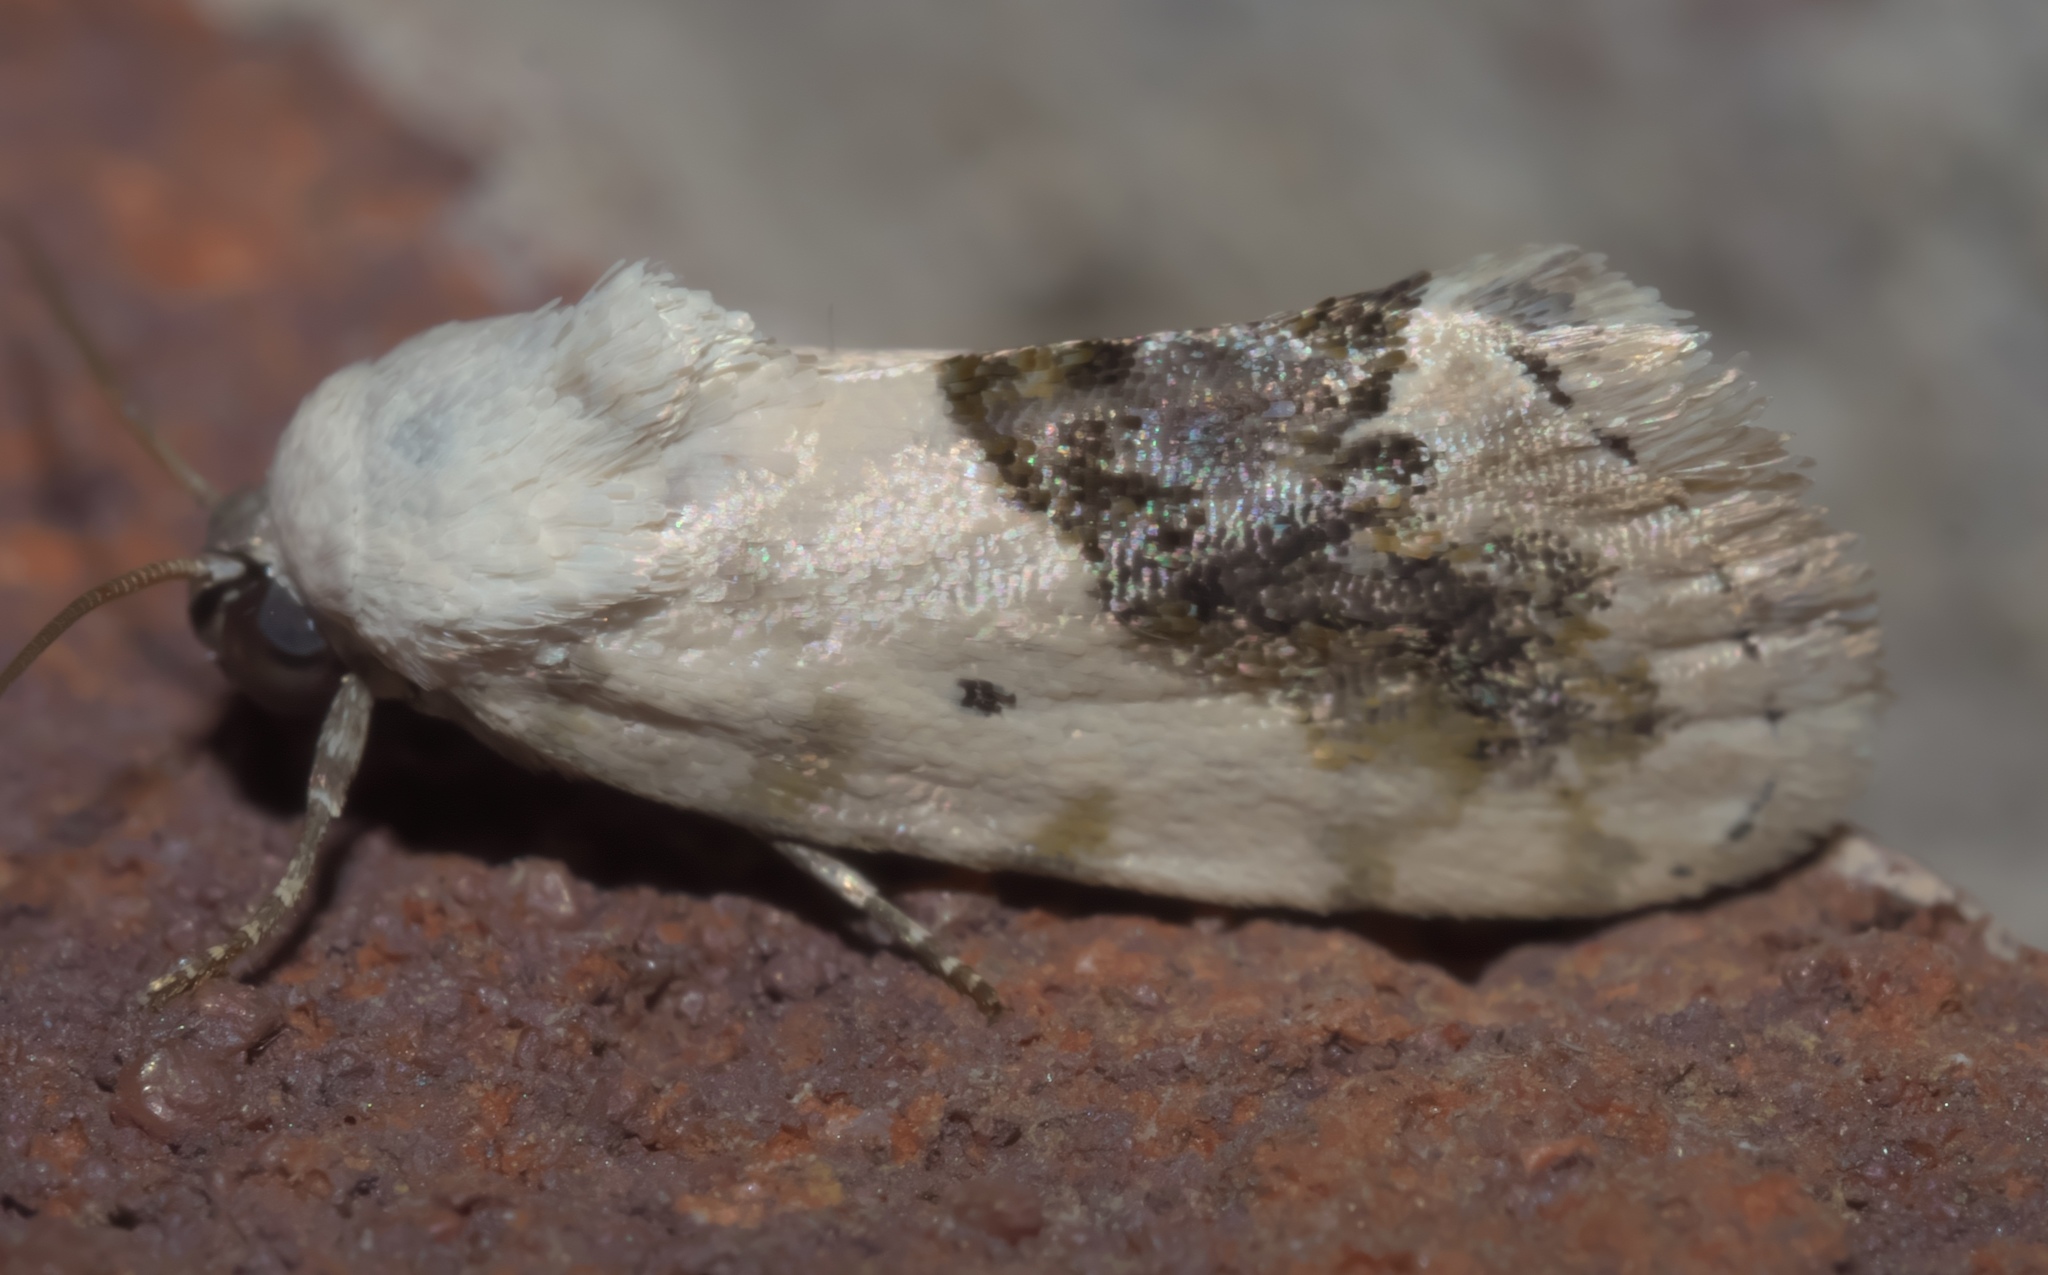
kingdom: Animalia
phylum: Arthropoda
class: Insecta
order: Lepidoptera
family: Noctuidae
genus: Acontia
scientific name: Acontia erastrioides
